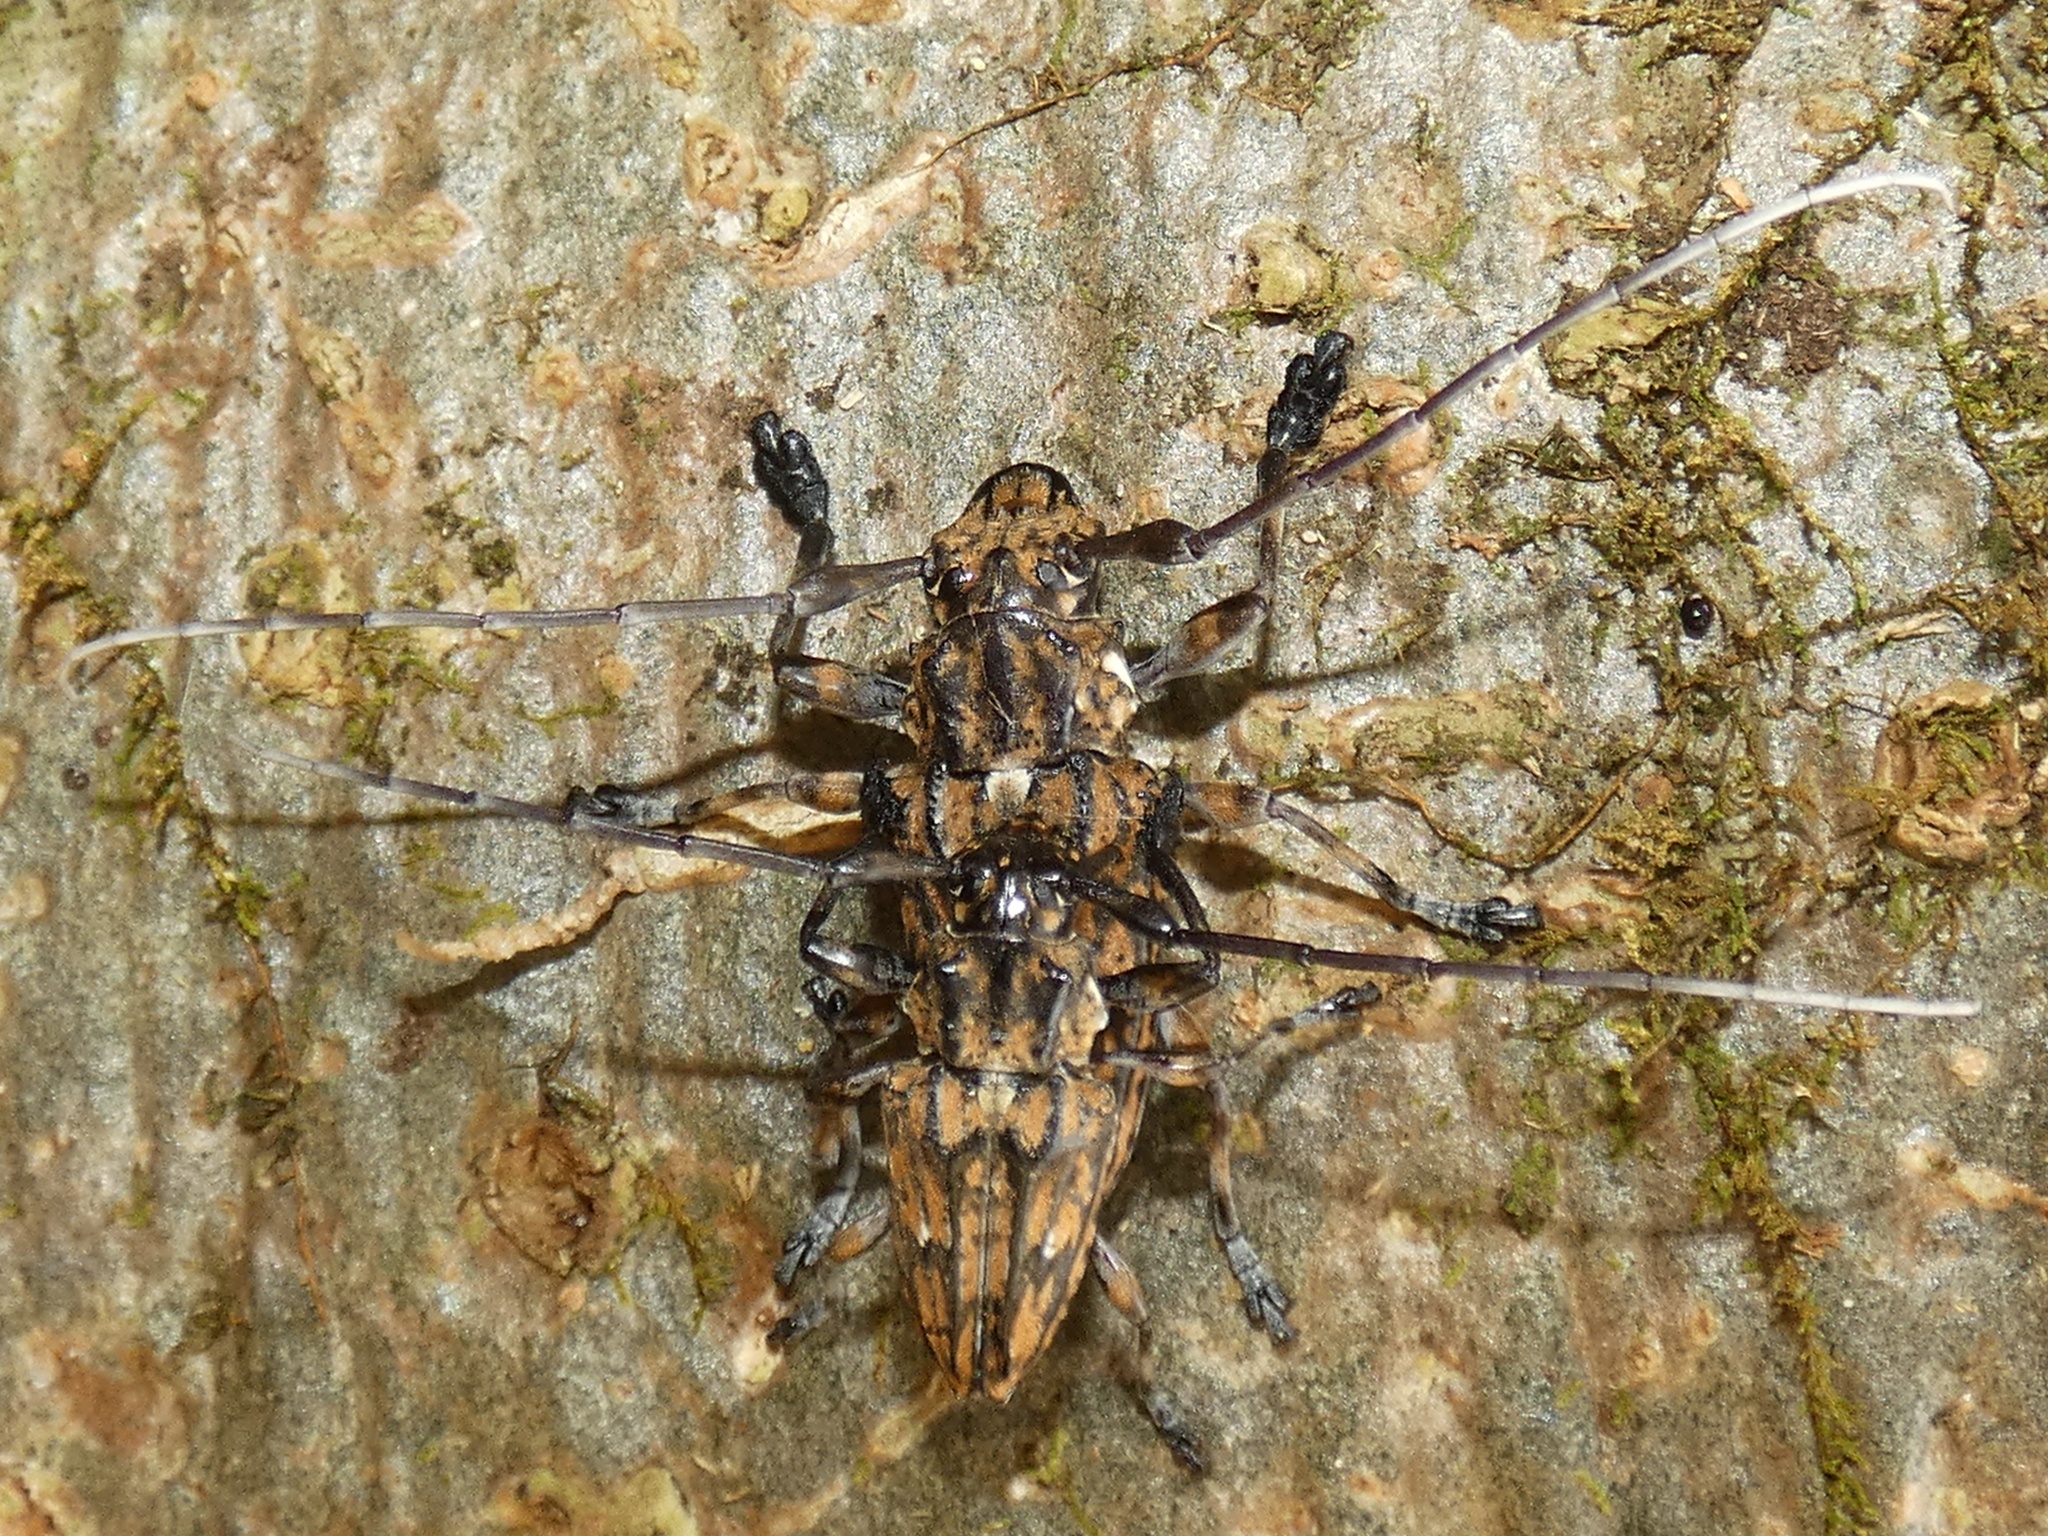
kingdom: Animalia
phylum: Arthropoda
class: Insecta
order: Coleoptera
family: Cerambycidae
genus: Steirastoma
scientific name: Steirastoma histrionicum
